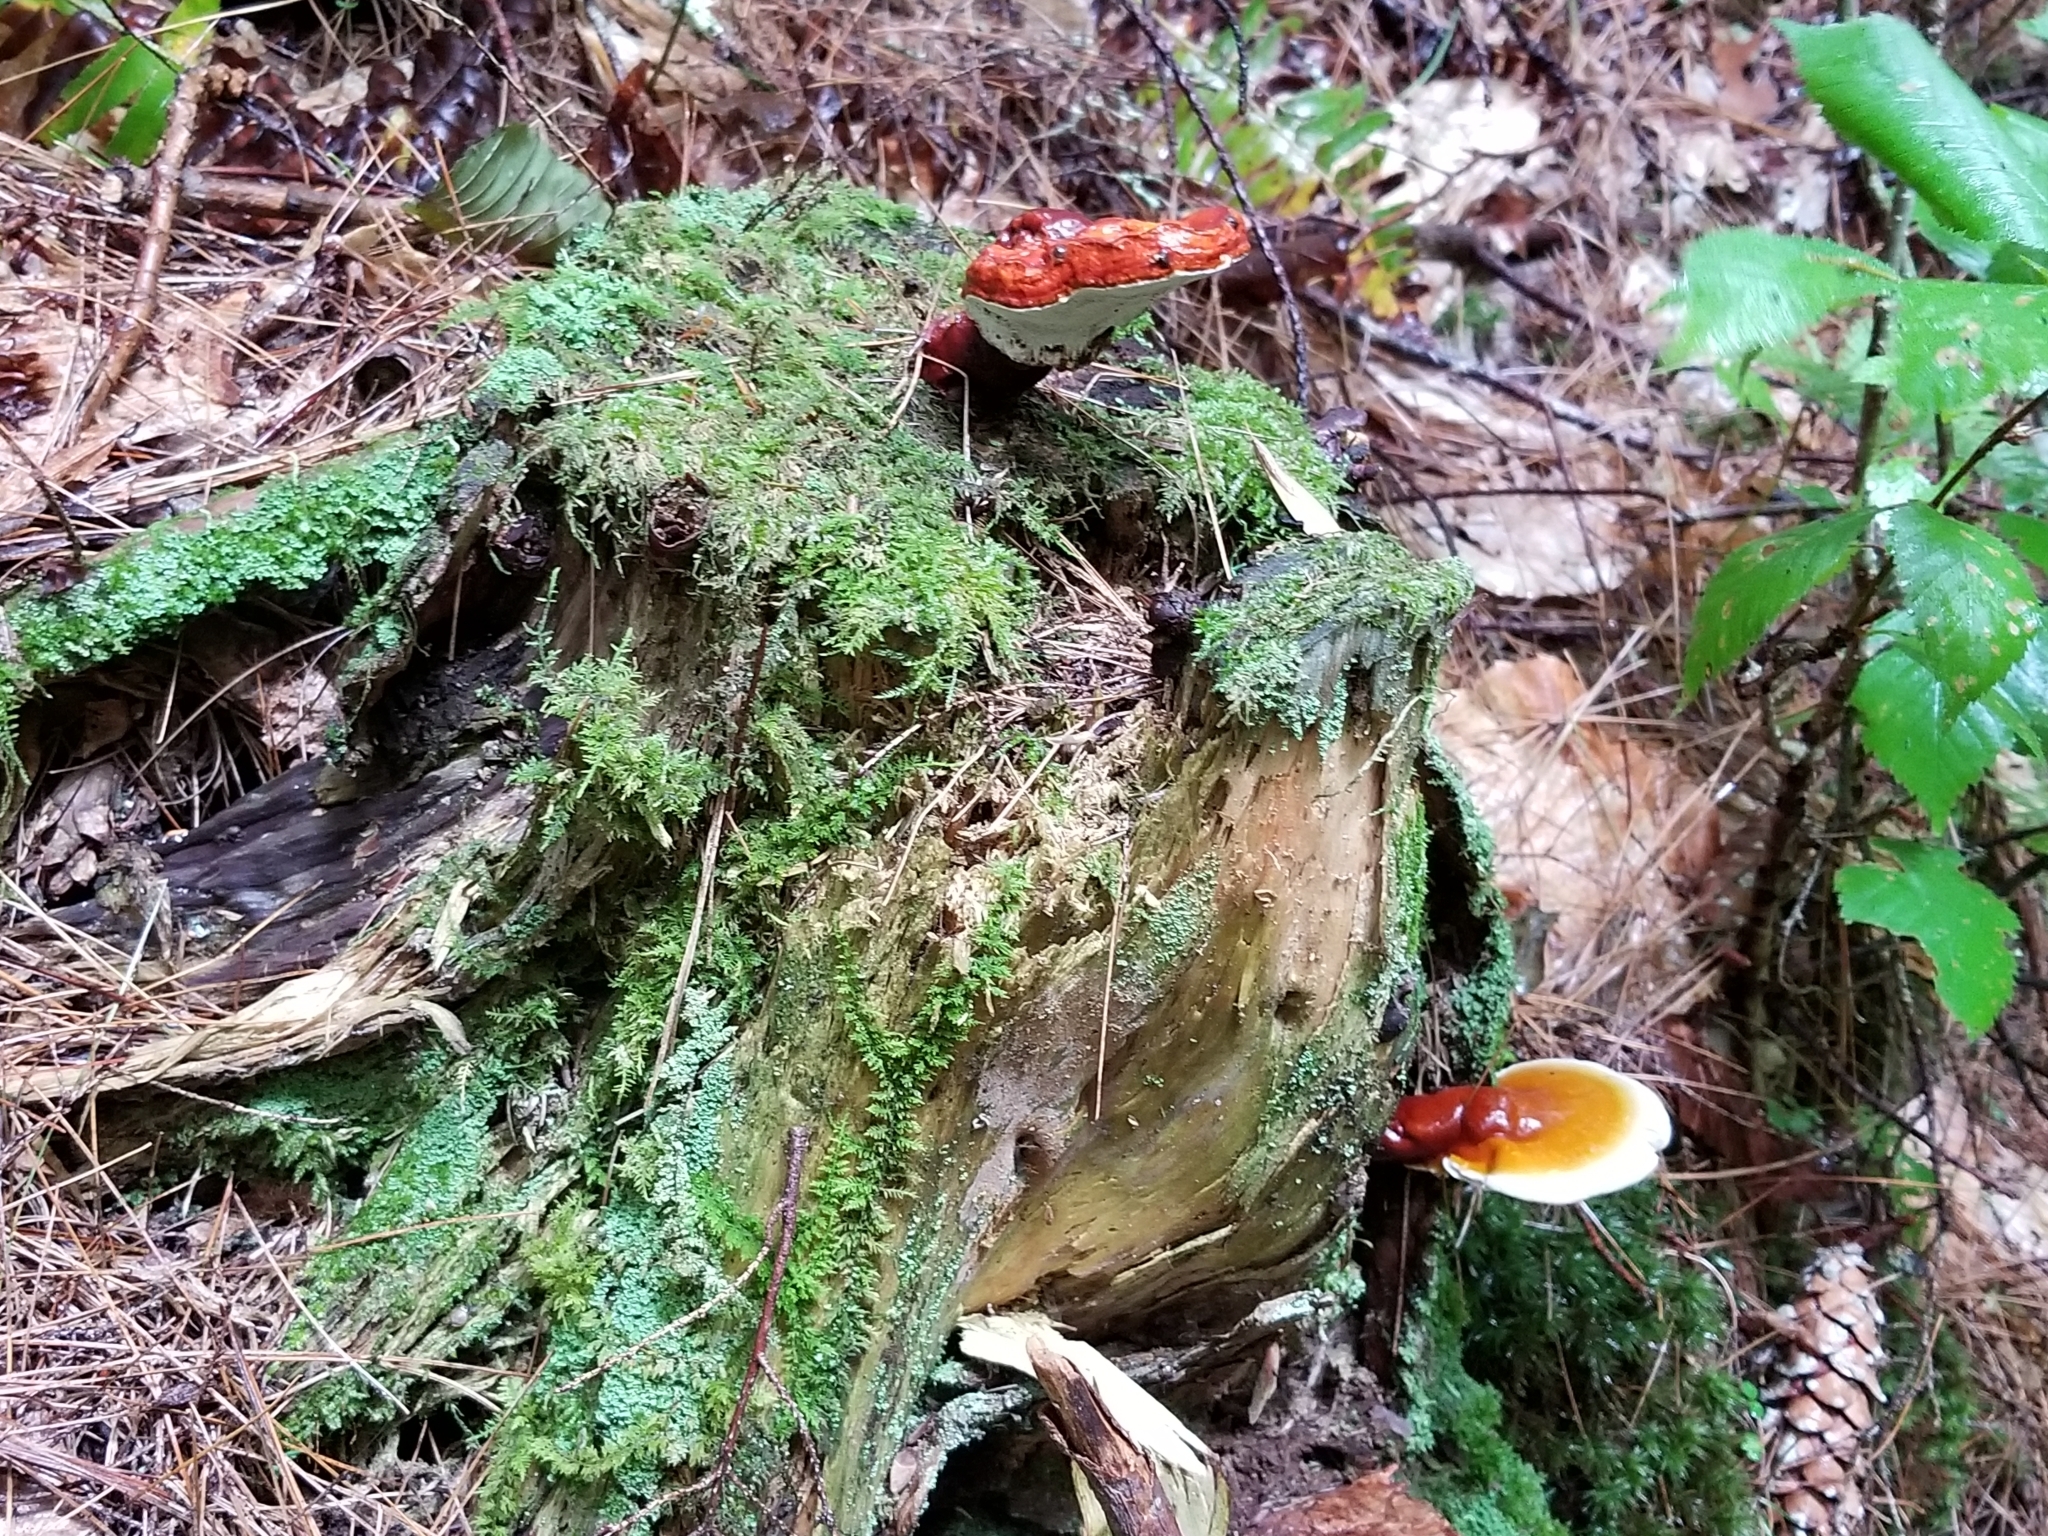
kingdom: Fungi
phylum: Basidiomycota
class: Agaricomycetes
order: Polyporales
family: Polyporaceae
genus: Ganoderma
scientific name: Ganoderma tsugae
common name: Hemlock varnish shelf
